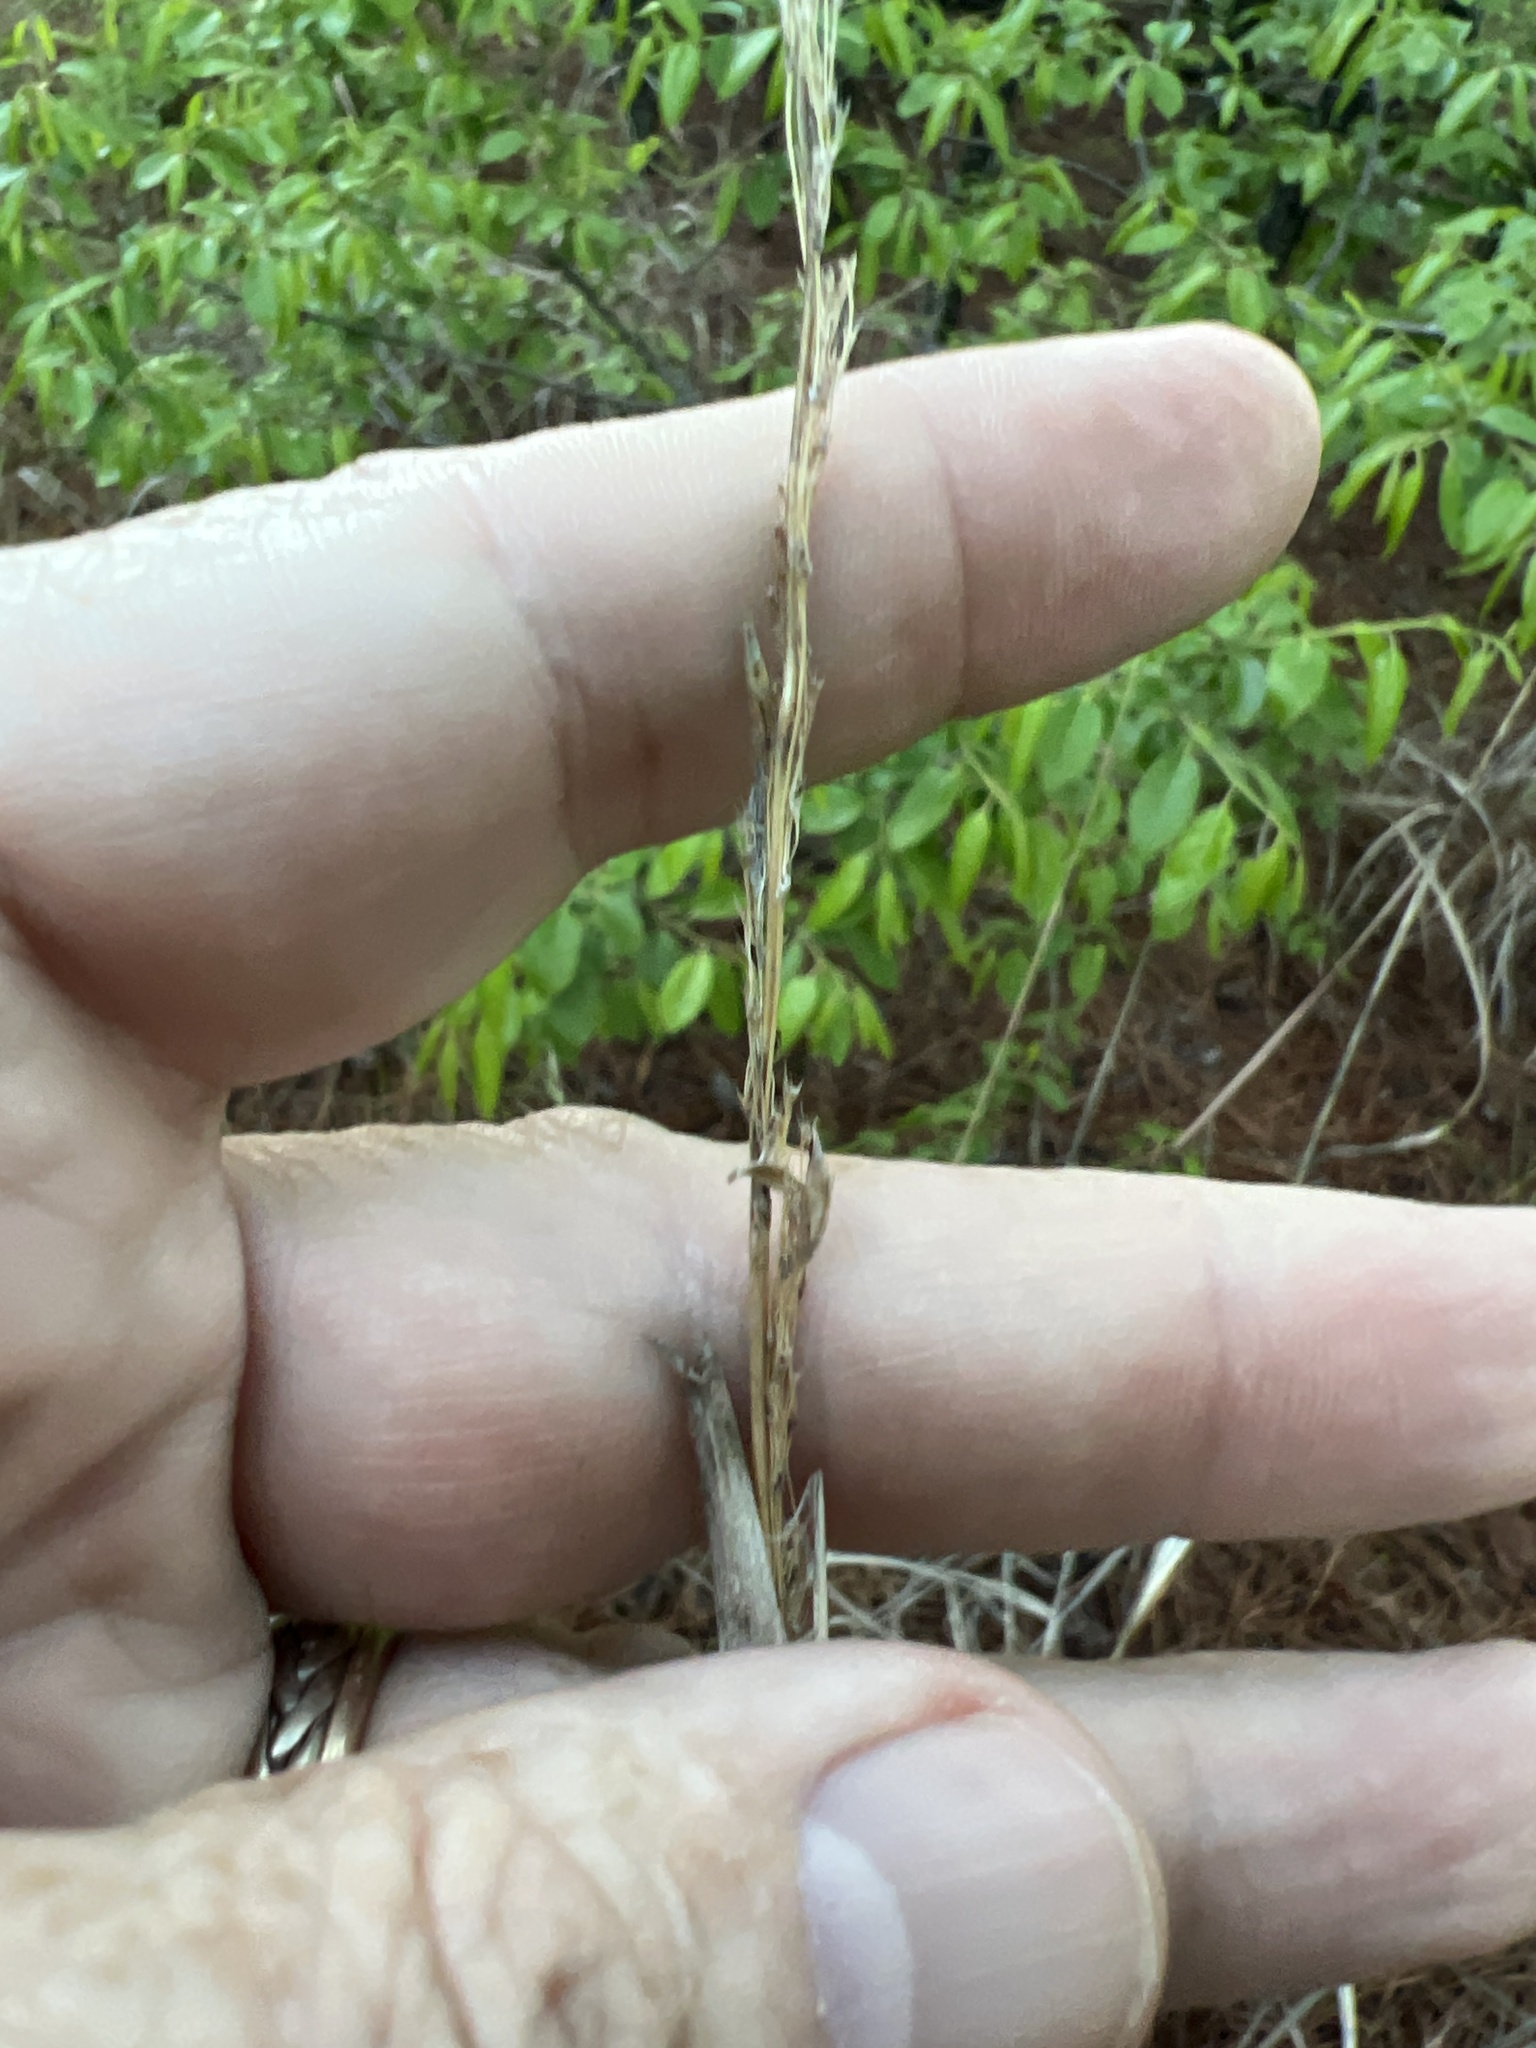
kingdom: Plantae
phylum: Tracheophyta
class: Liliopsida
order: Poales
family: Poaceae
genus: Sorghastrum
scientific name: Sorghastrum nutans
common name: Indian grass
